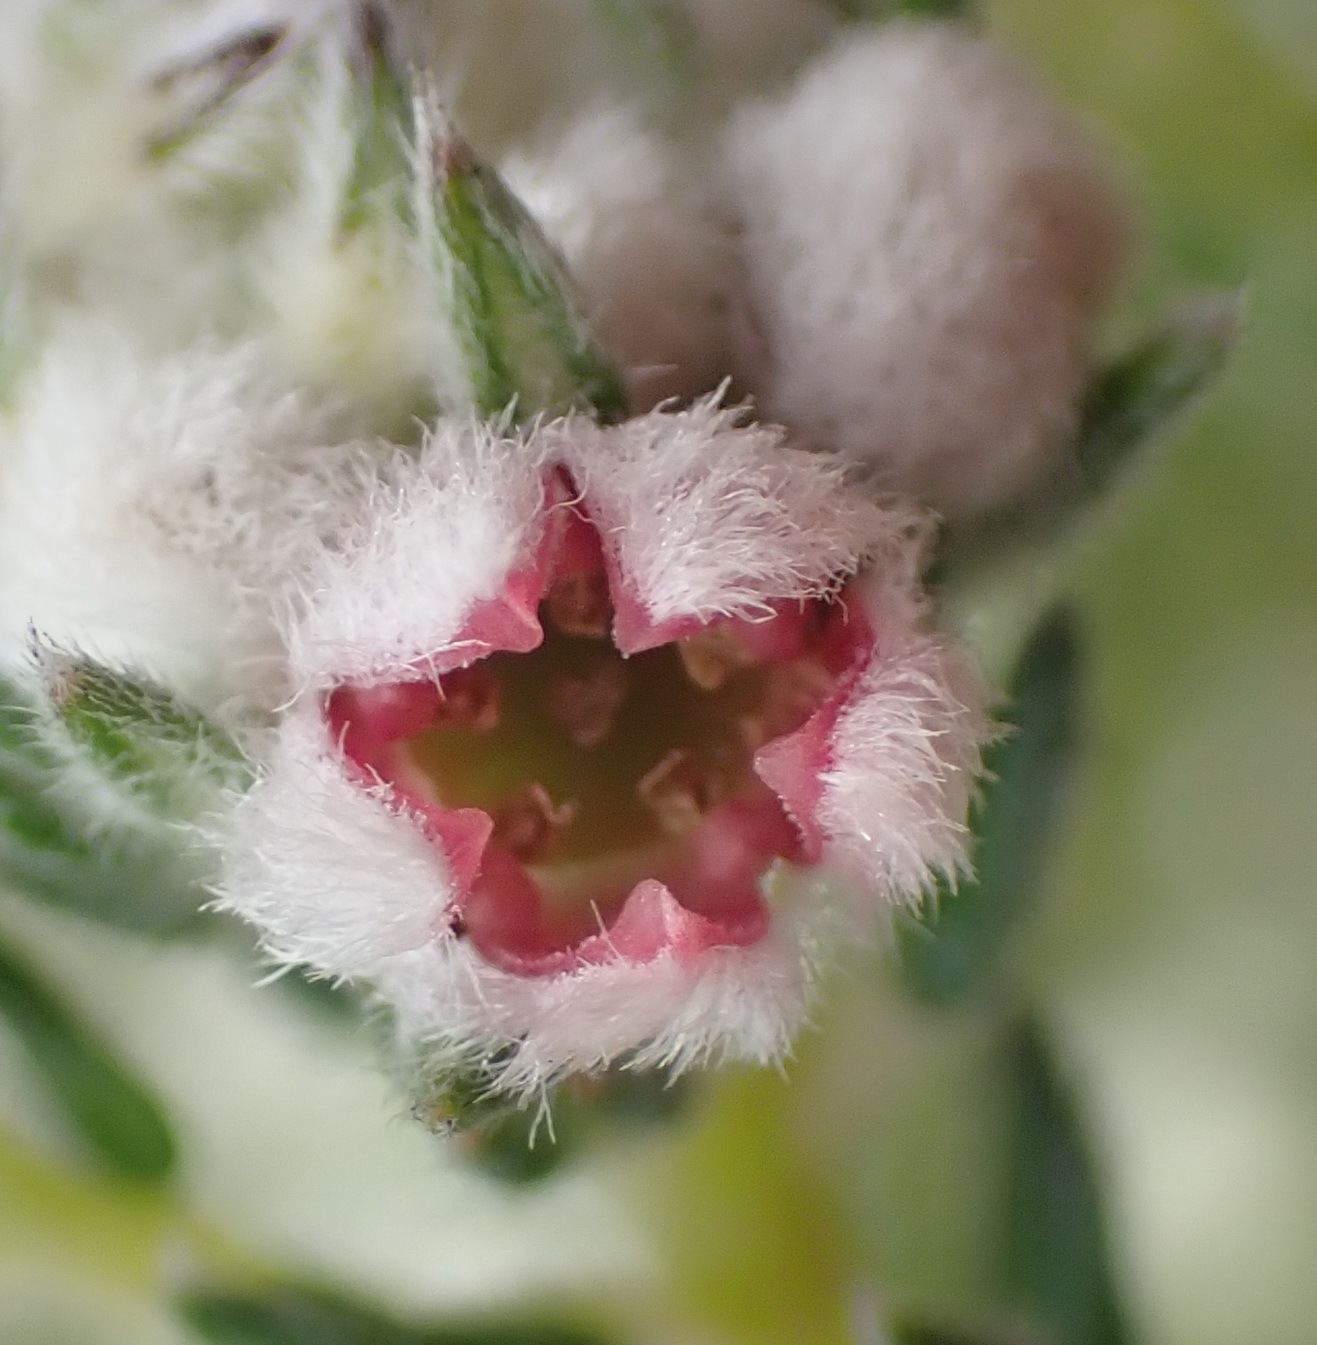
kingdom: Plantae
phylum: Tracheophyta
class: Magnoliopsida
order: Rosales
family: Rhamnaceae
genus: Phylica
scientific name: Phylica purpurea
